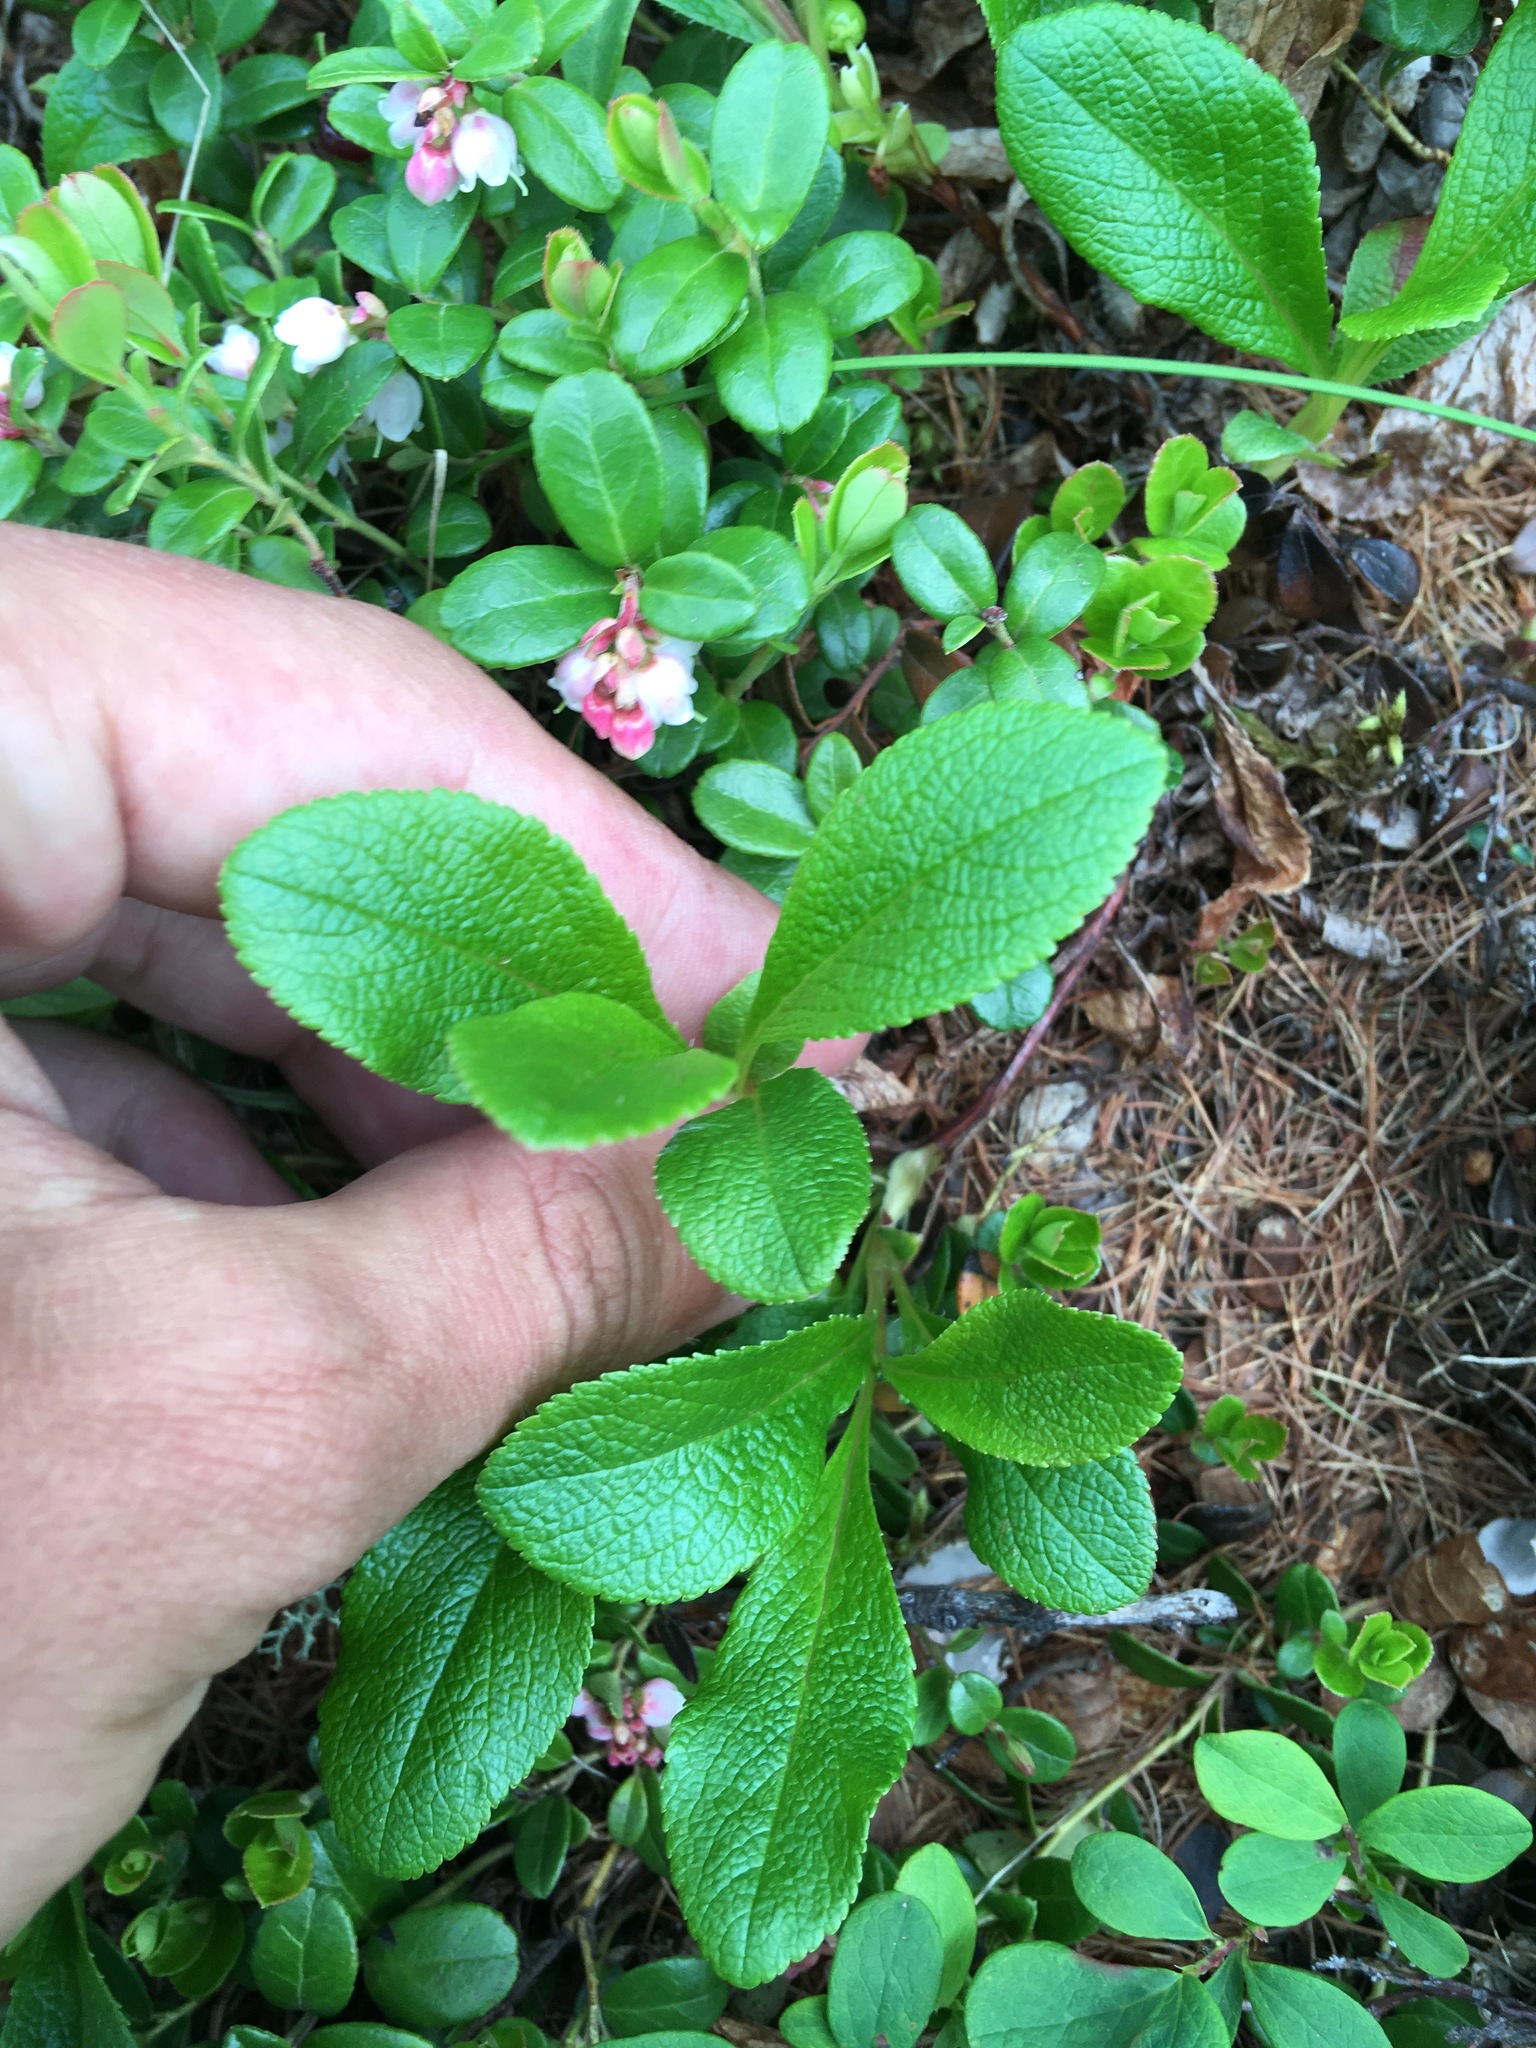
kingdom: Plantae
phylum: Tracheophyta
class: Magnoliopsida
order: Ericales
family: Ericaceae
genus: Arctostaphylos
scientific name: Arctostaphylos rubra
